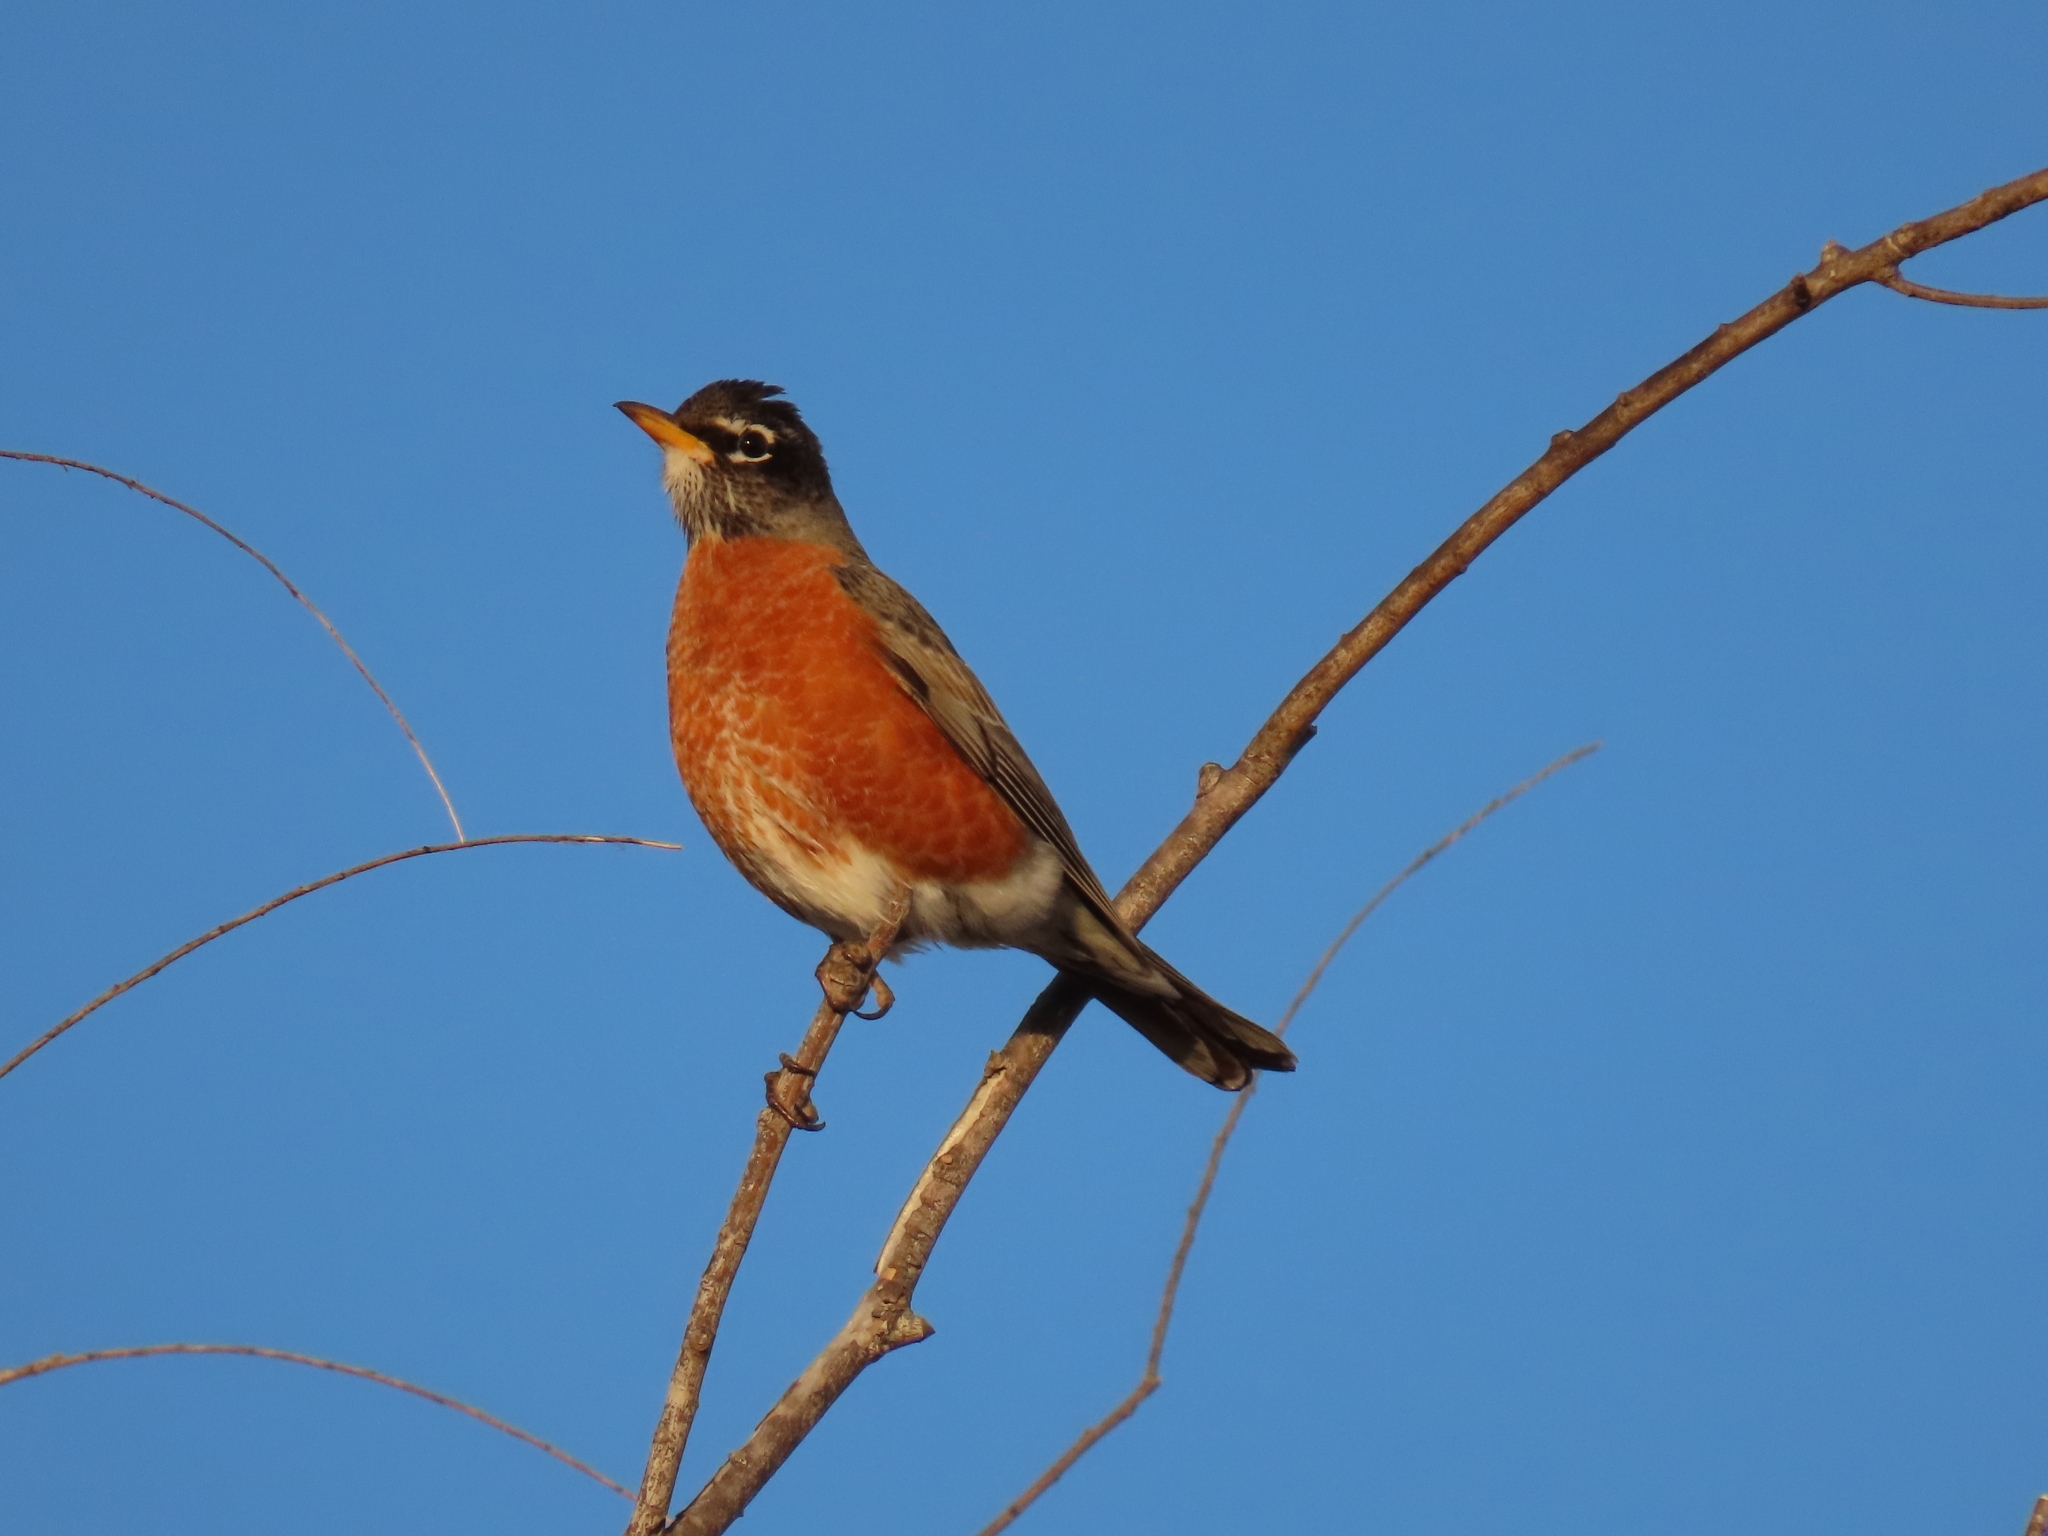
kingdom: Animalia
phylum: Chordata
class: Aves
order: Passeriformes
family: Turdidae
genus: Turdus
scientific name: Turdus migratorius
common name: American robin
